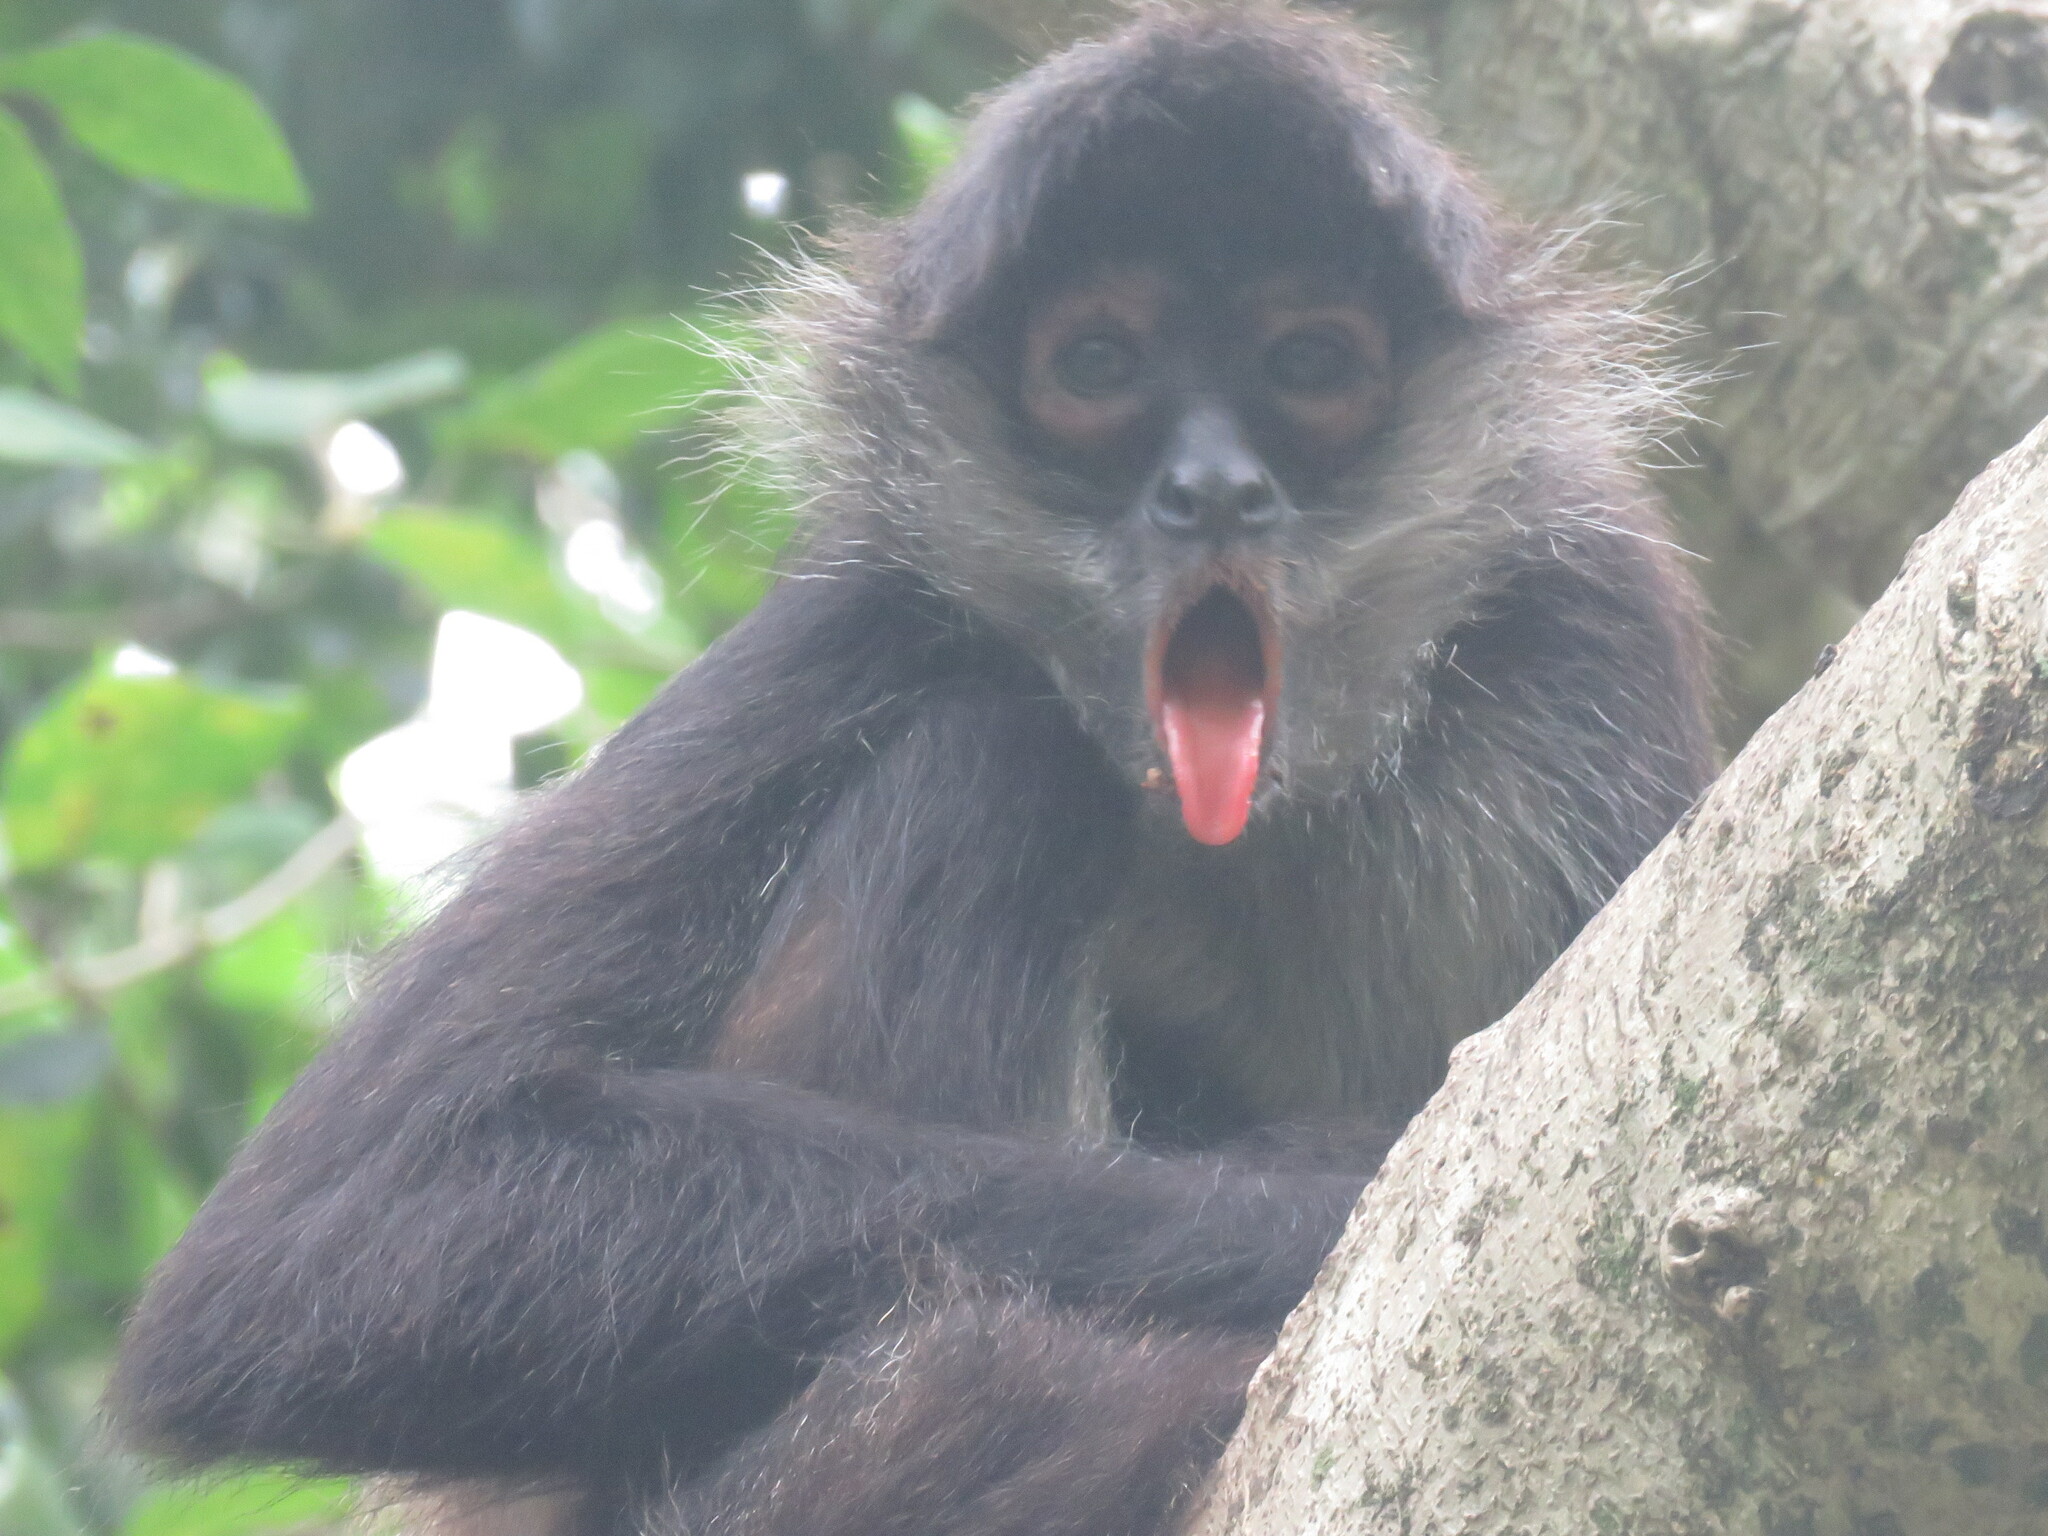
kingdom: Animalia
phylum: Chordata
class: Mammalia
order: Primates
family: Atelidae
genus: Ateles
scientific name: Ateles geoffroyi
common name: Black-handed spider monkey
